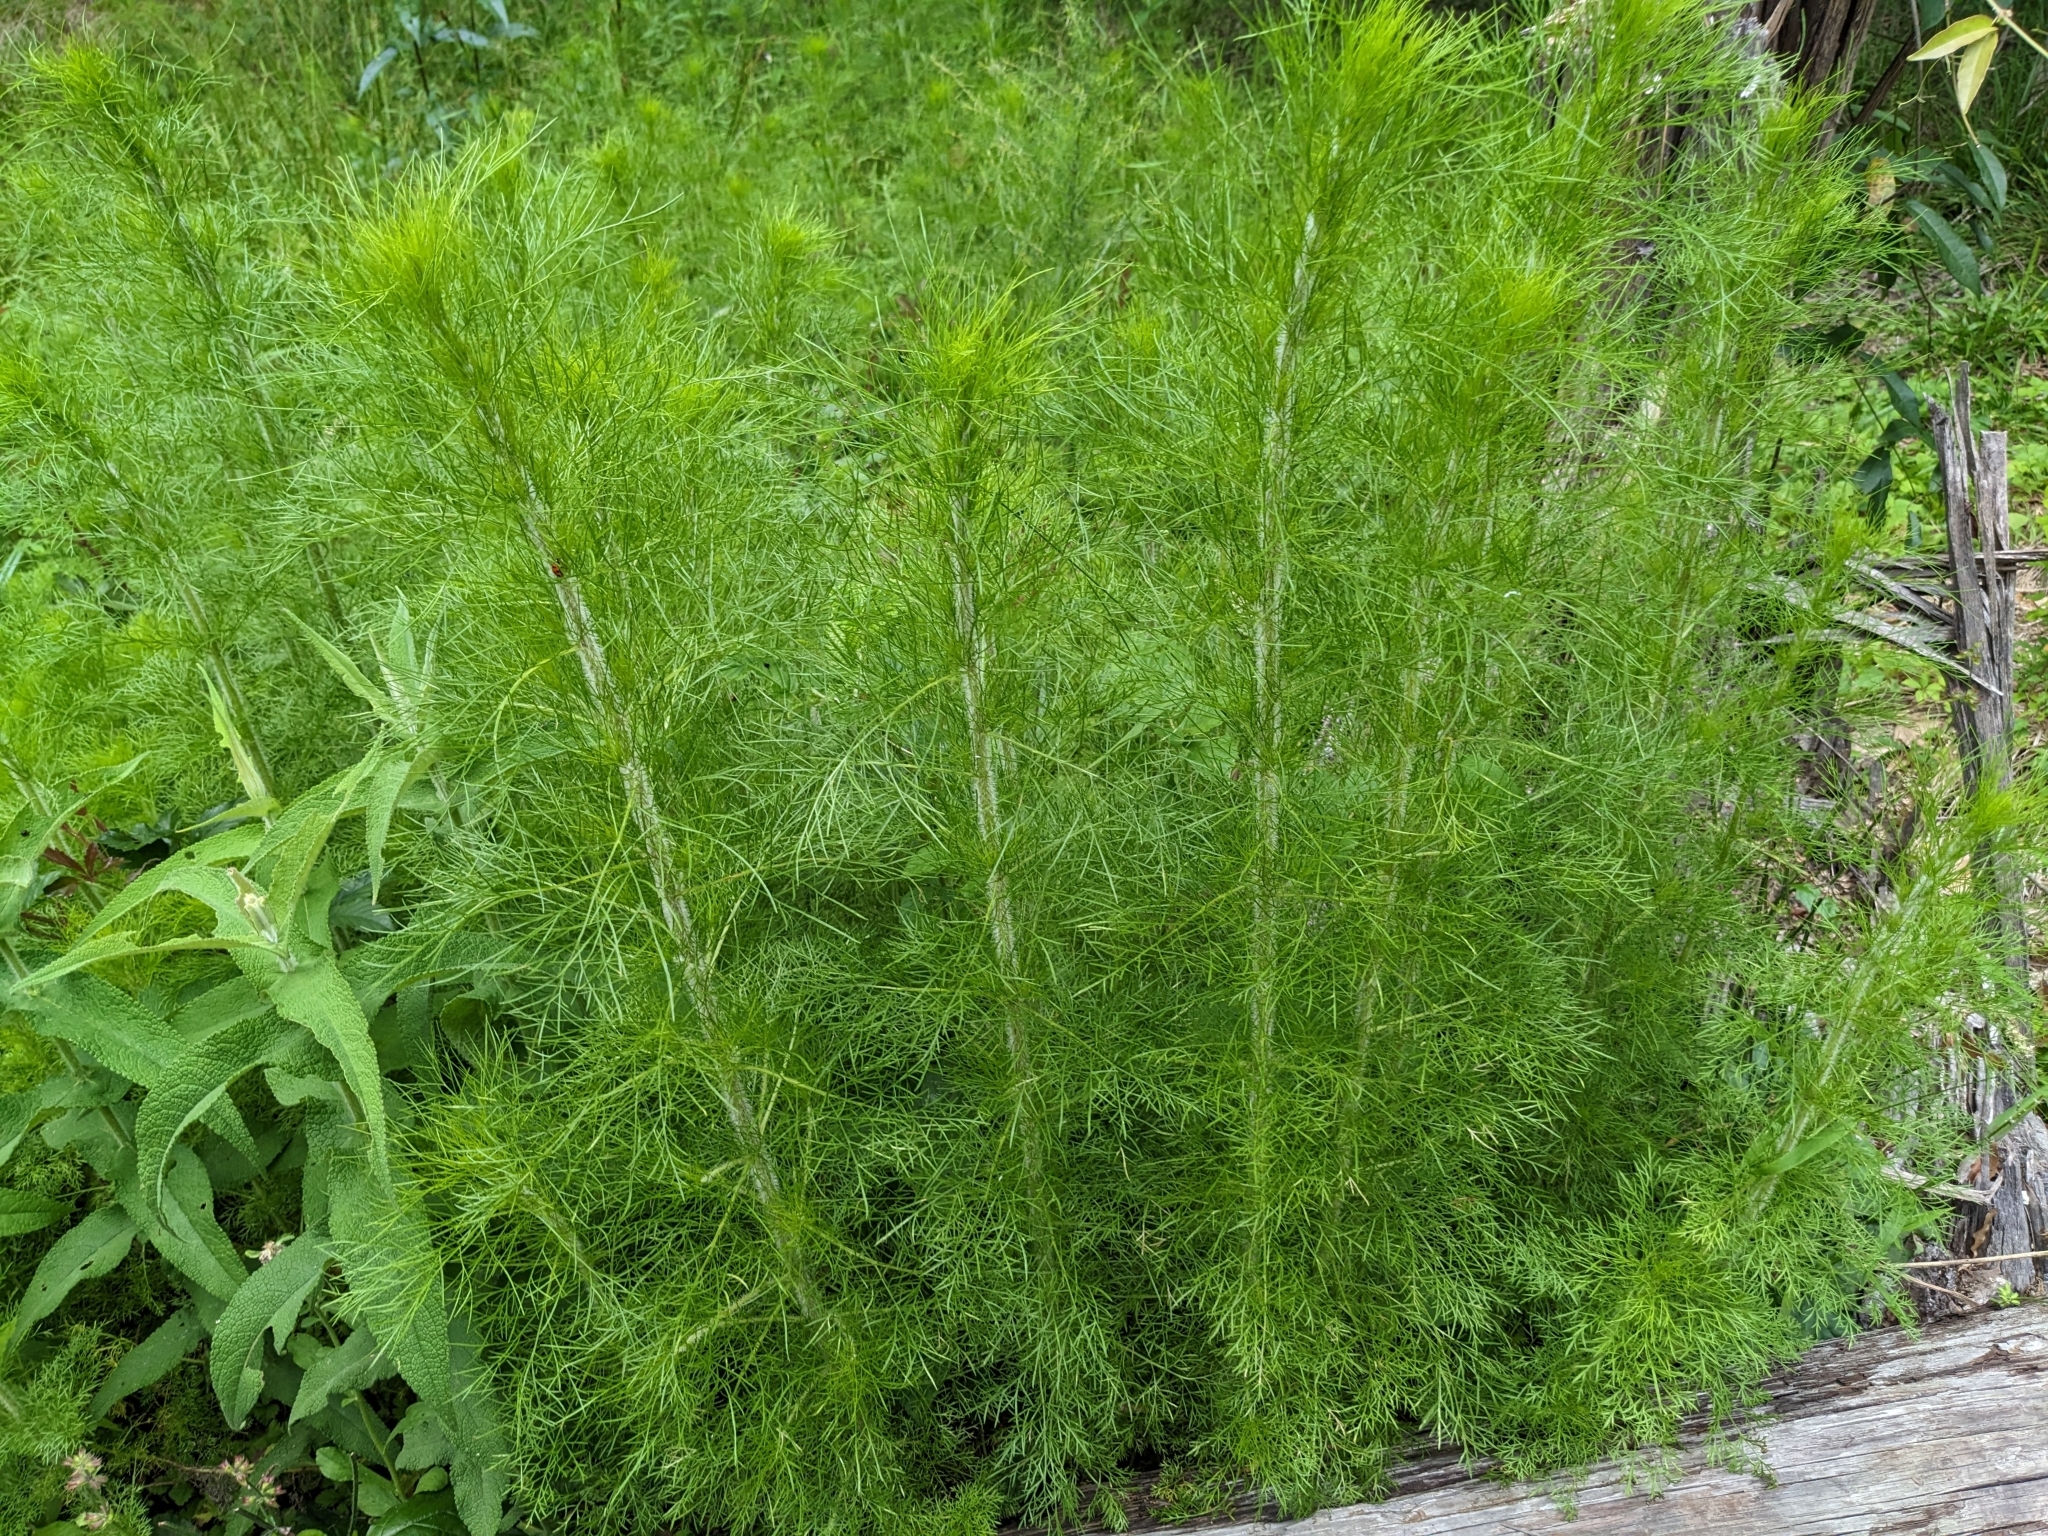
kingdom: Plantae
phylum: Tracheophyta
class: Magnoliopsida
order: Asterales
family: Asteraceae
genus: Eupatorium
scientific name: Eupatorium capillifolium
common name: Dog-fennel
